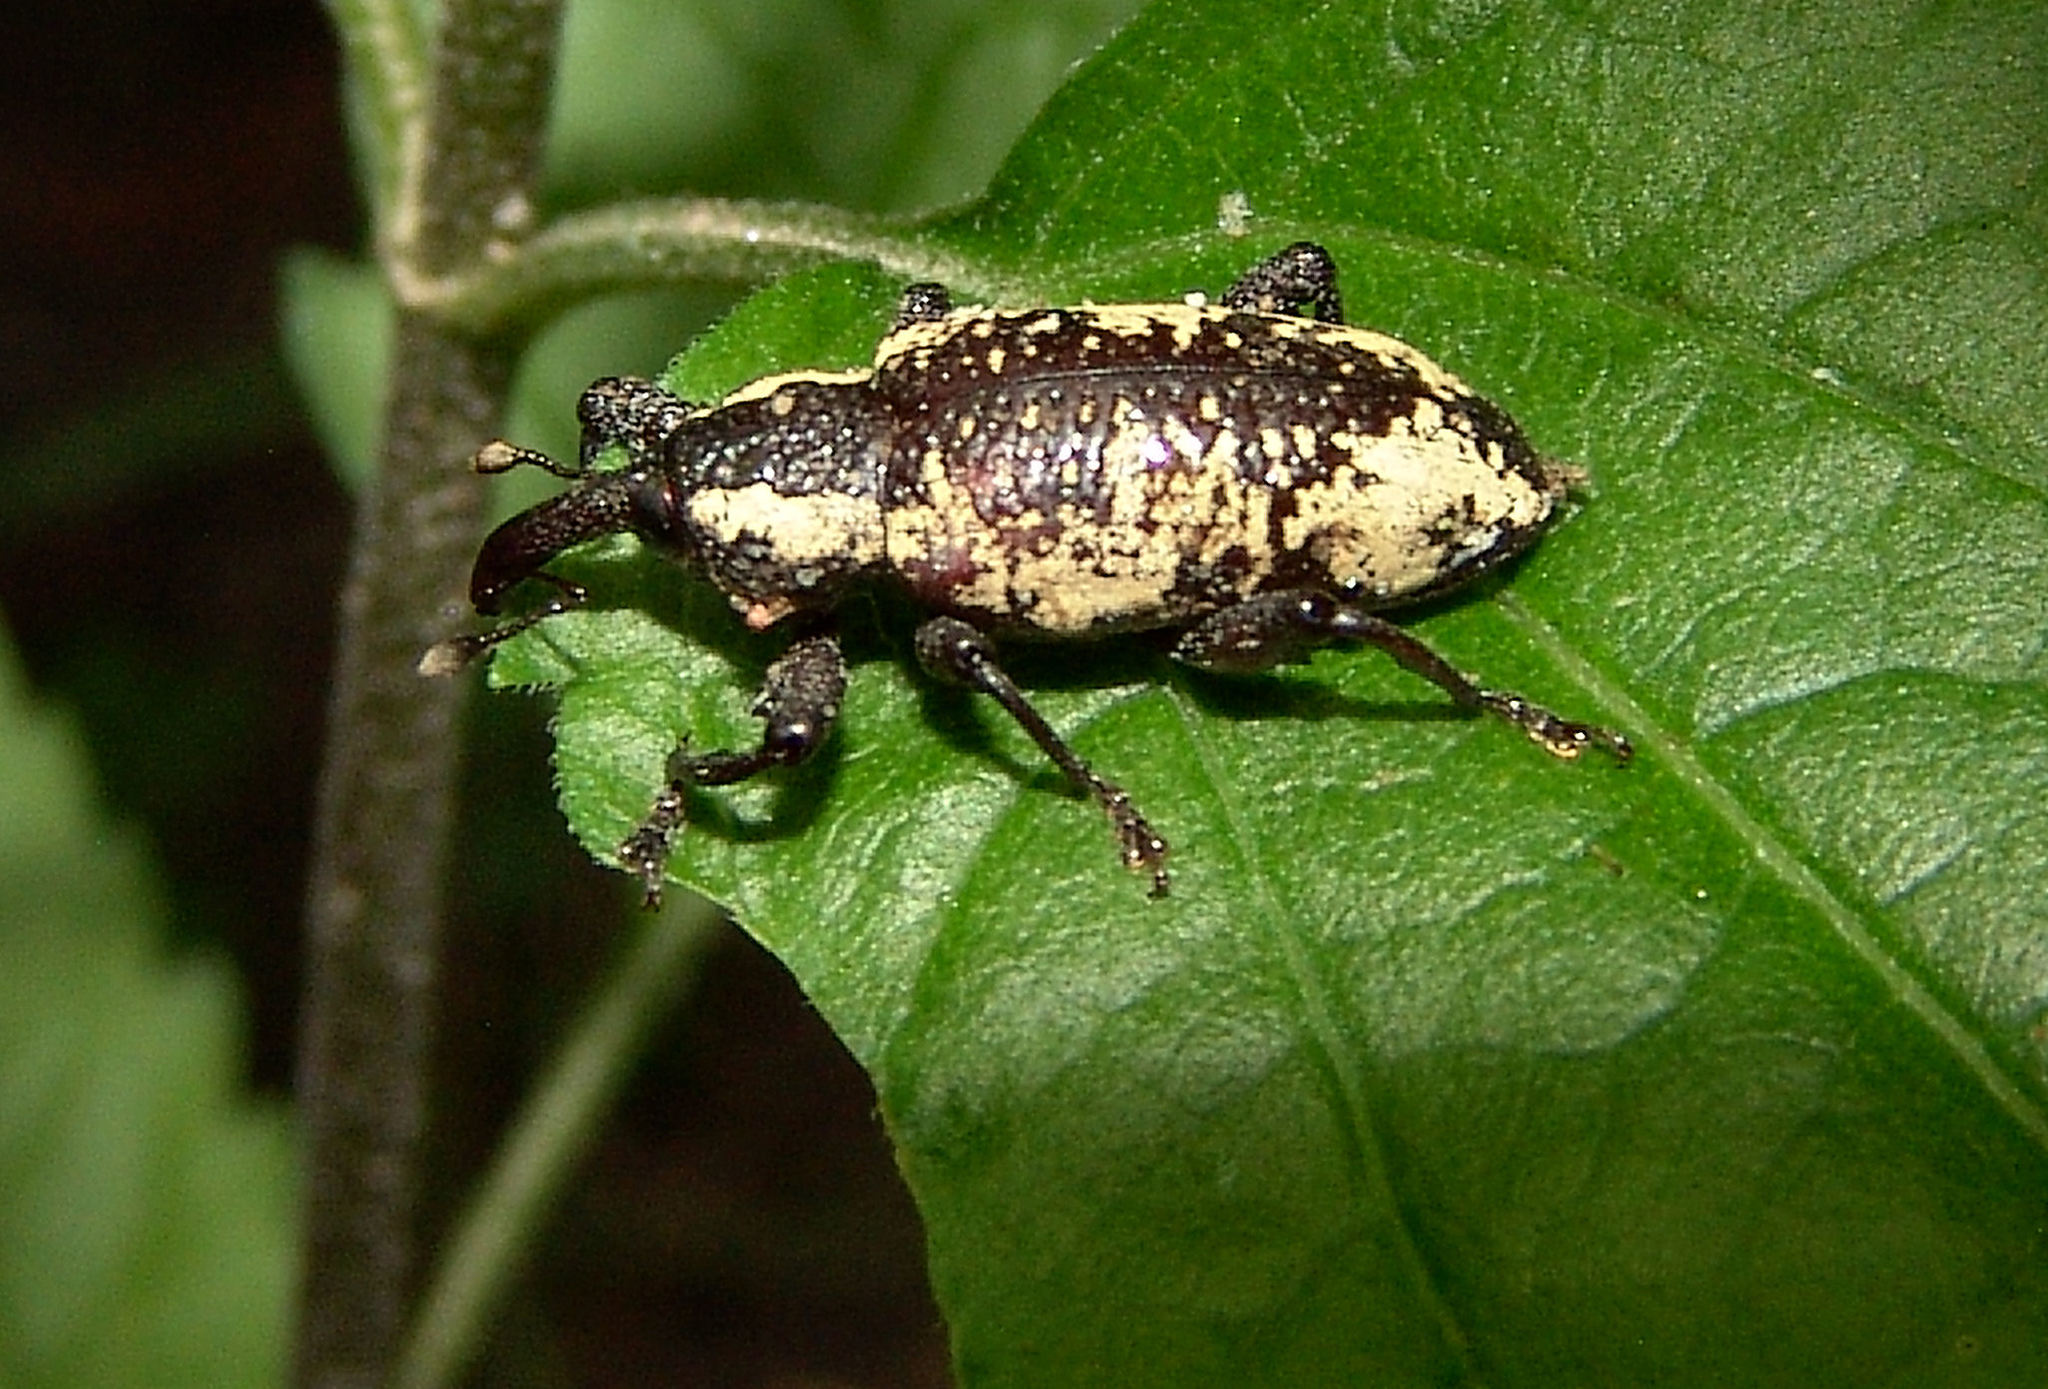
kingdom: Animalia
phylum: Arthropoda
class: Insecta
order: Coleoptera
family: Curculionidae
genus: Heilipus
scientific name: Heilipus squamosus
